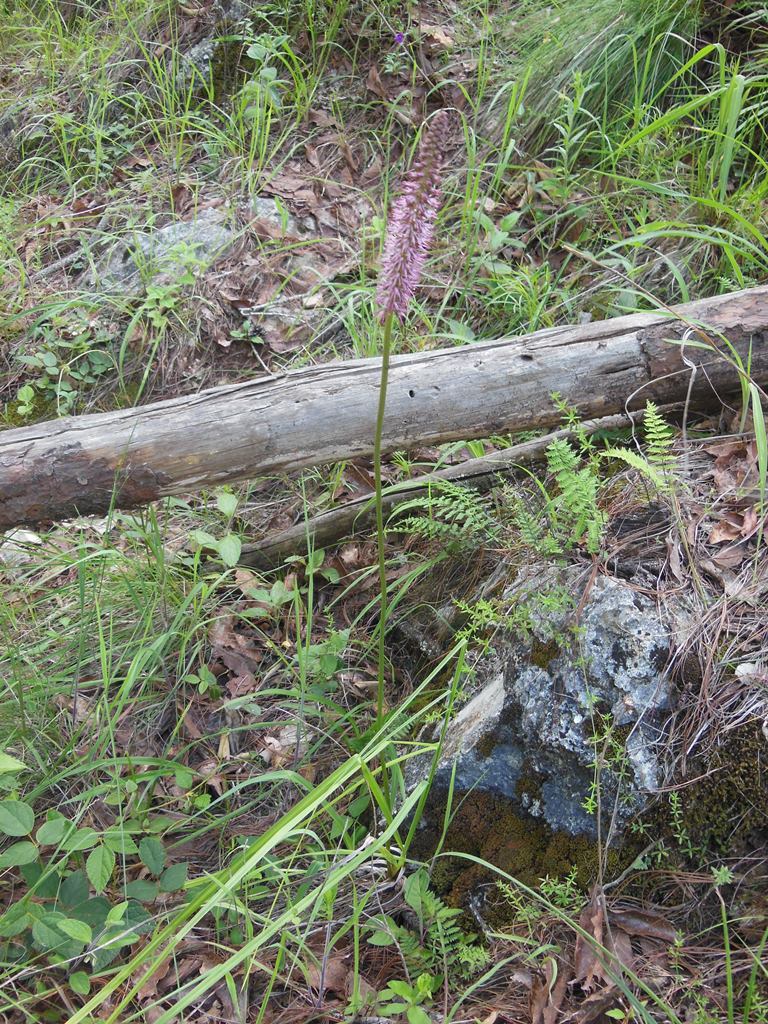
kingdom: Plantae
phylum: Tracheophyta
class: Liliopsida
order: Liliales
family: Melanthiaceae
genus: Schoenocaulon
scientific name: Schoenocaulon officinale
